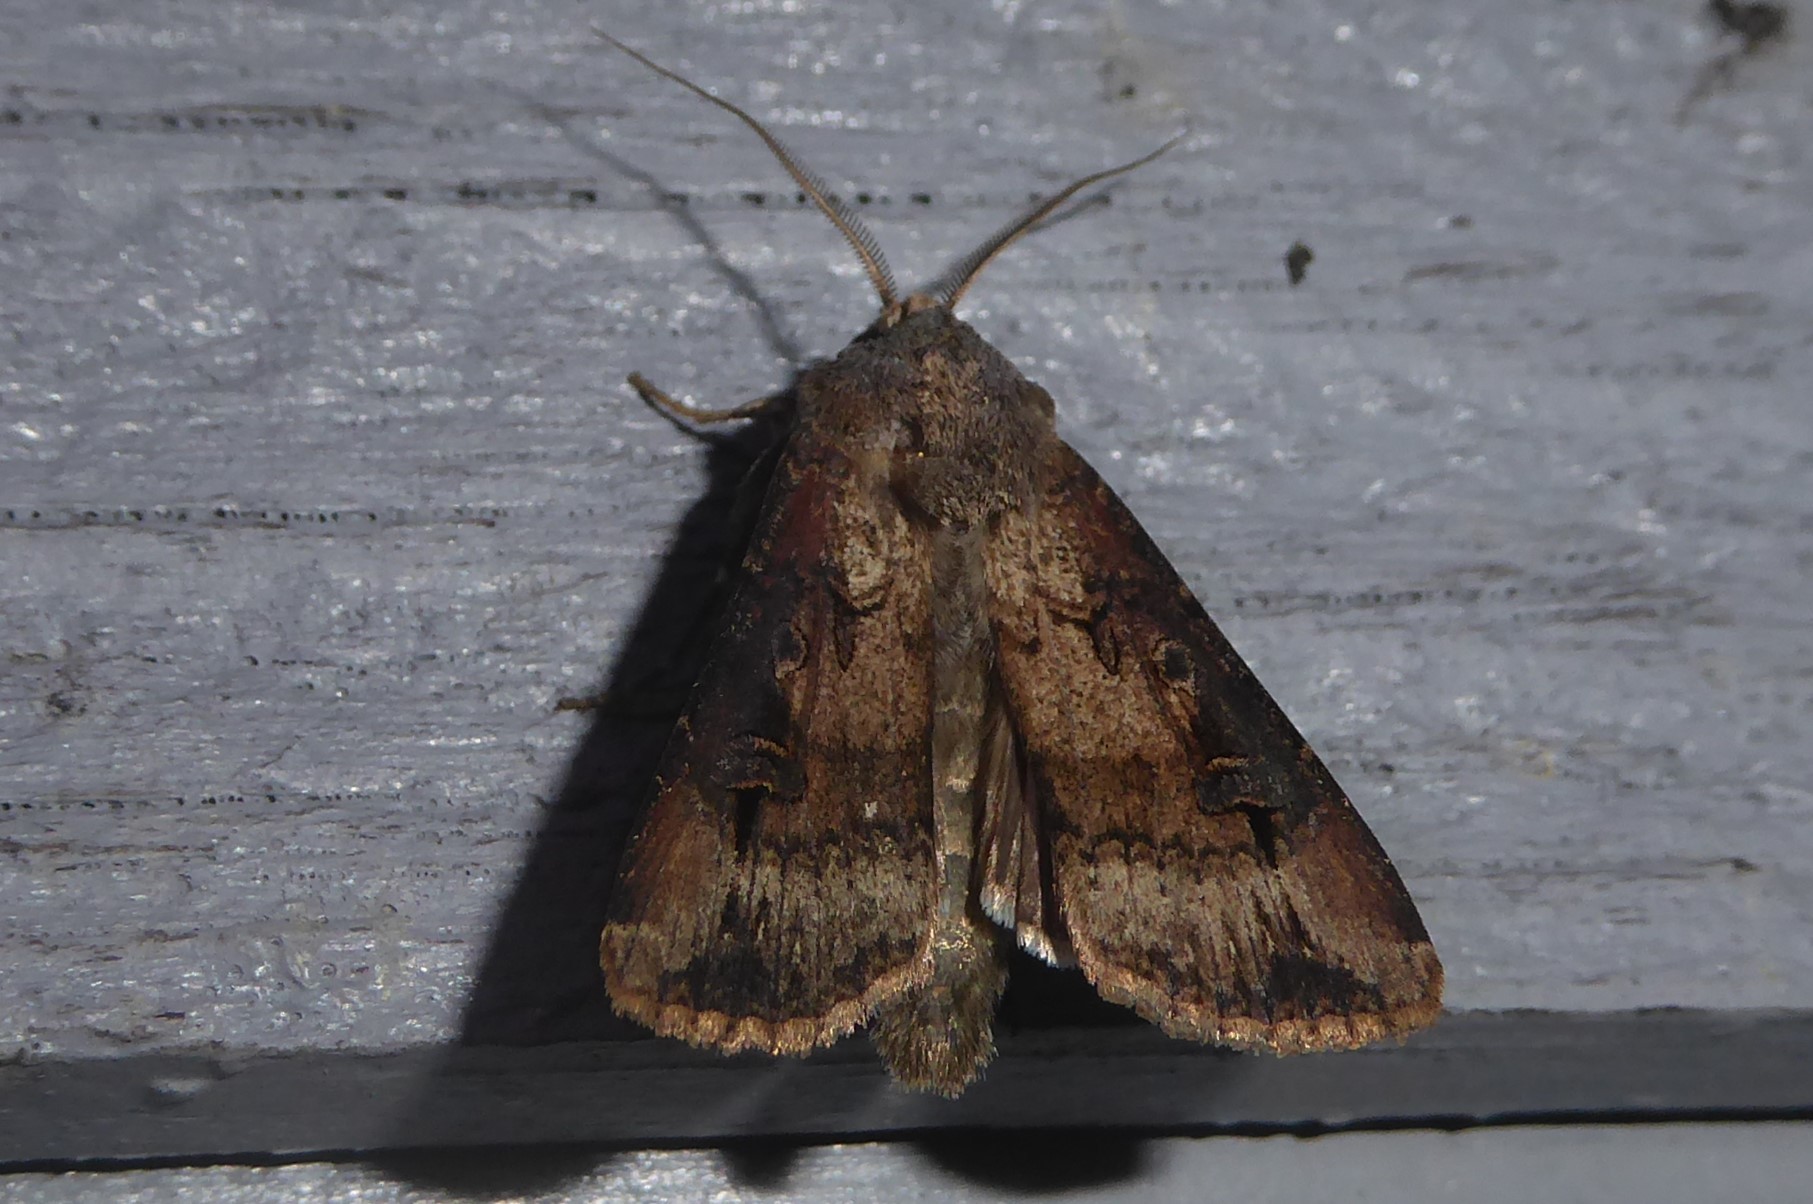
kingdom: Animalia
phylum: Arthropoda
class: Insecta
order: Lepidoptera
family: Noctuidae
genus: Agrotis
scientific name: Agrotis ipsilon
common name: Dark sword-grass
